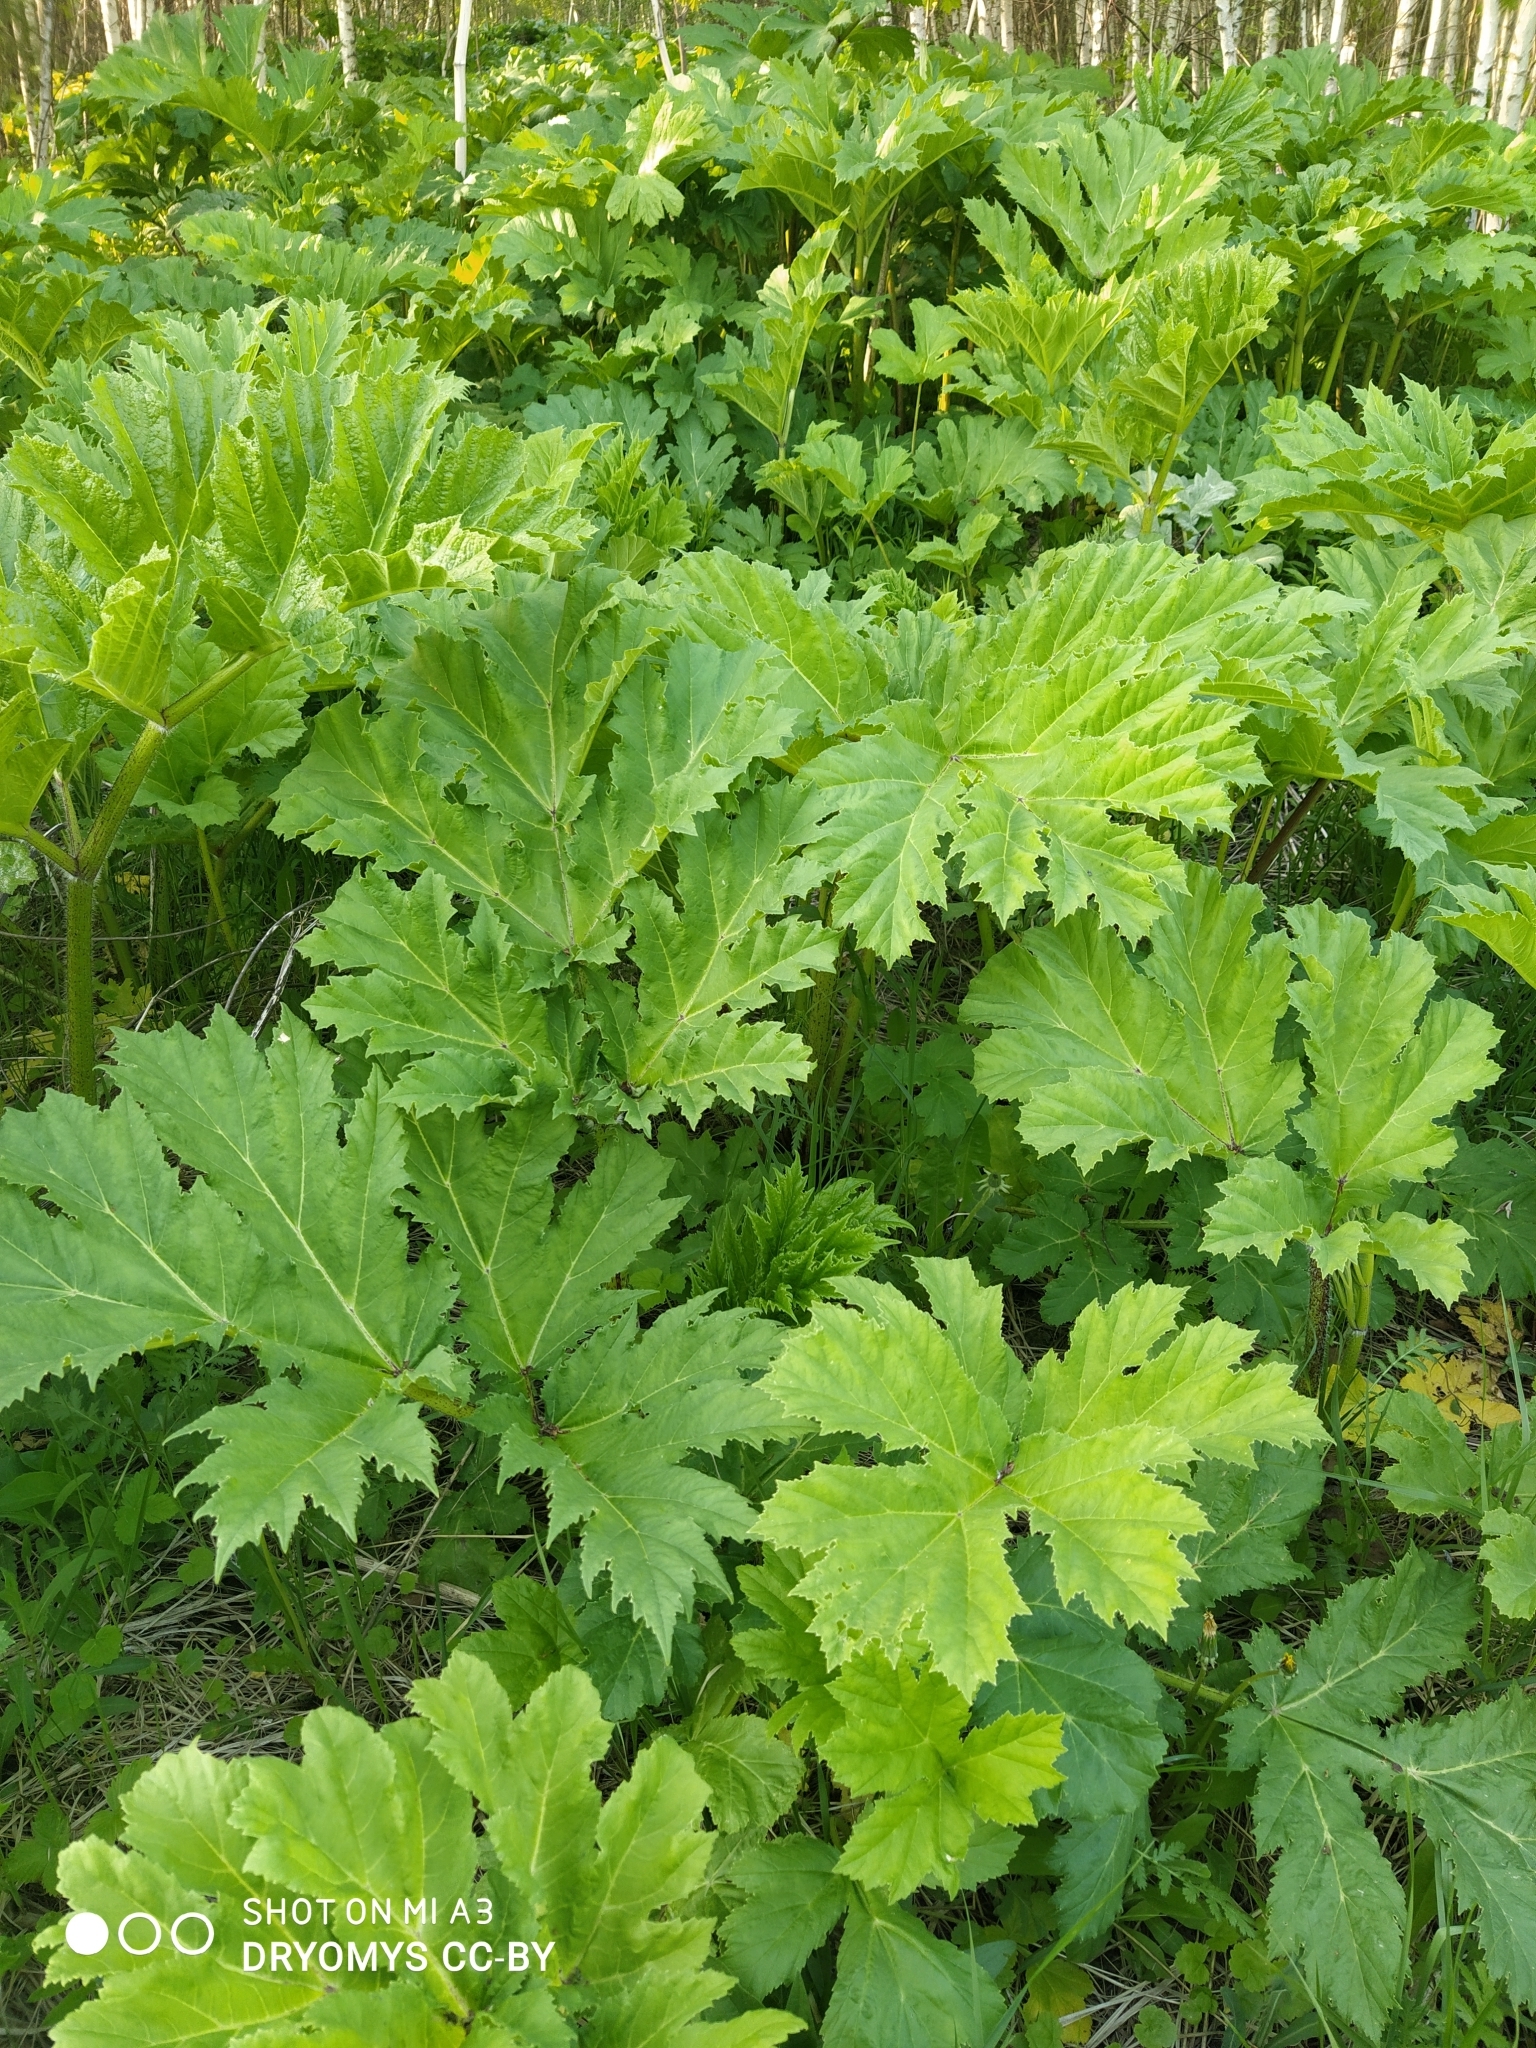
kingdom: Plantae
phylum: Tracheophyta
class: Magnoliopsida
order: Apiales
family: Apiaceae
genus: Heracleum
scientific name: Heracleum sosnowskyi
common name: Sosnowsky's hogweed
